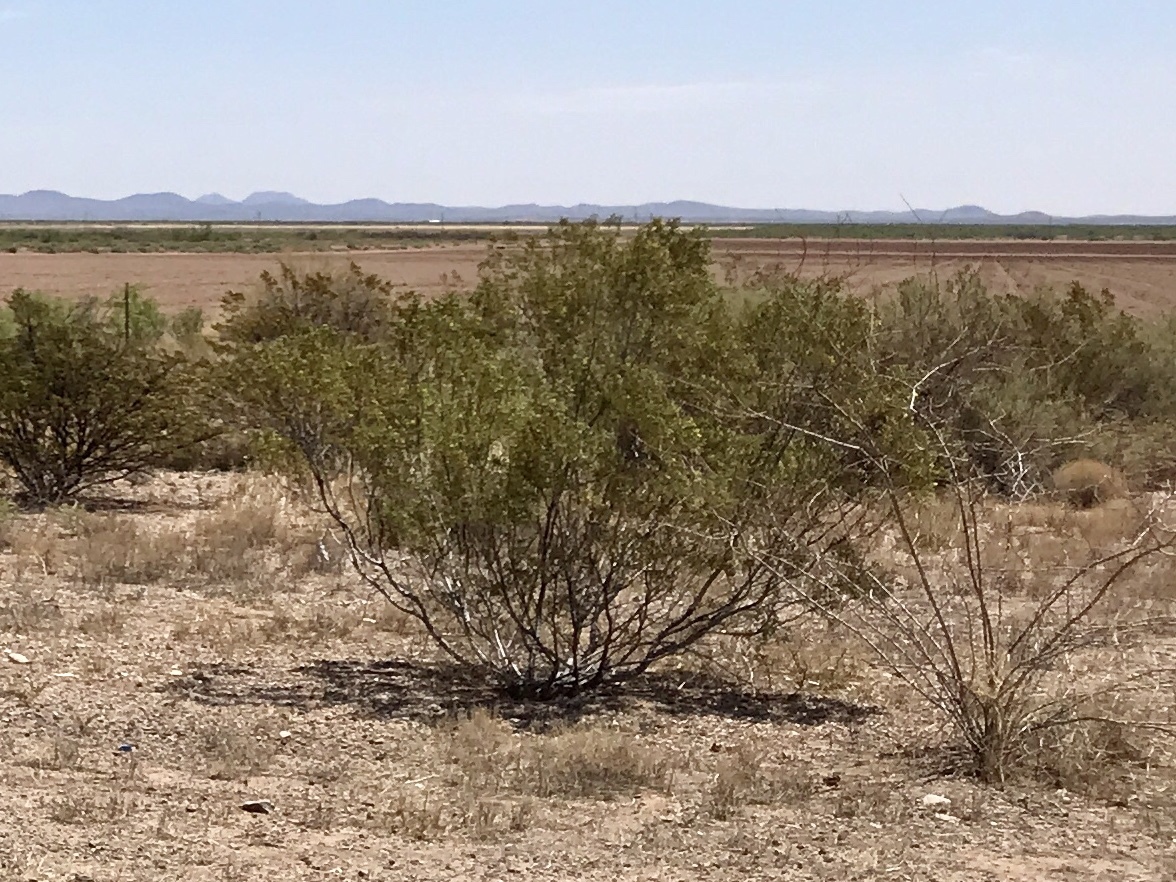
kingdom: Plantae
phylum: Tracheophyta
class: Magnoliopsida
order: Zygophyllales
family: Zygophyllaceae
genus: Larrea
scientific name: Larrea tridentata
